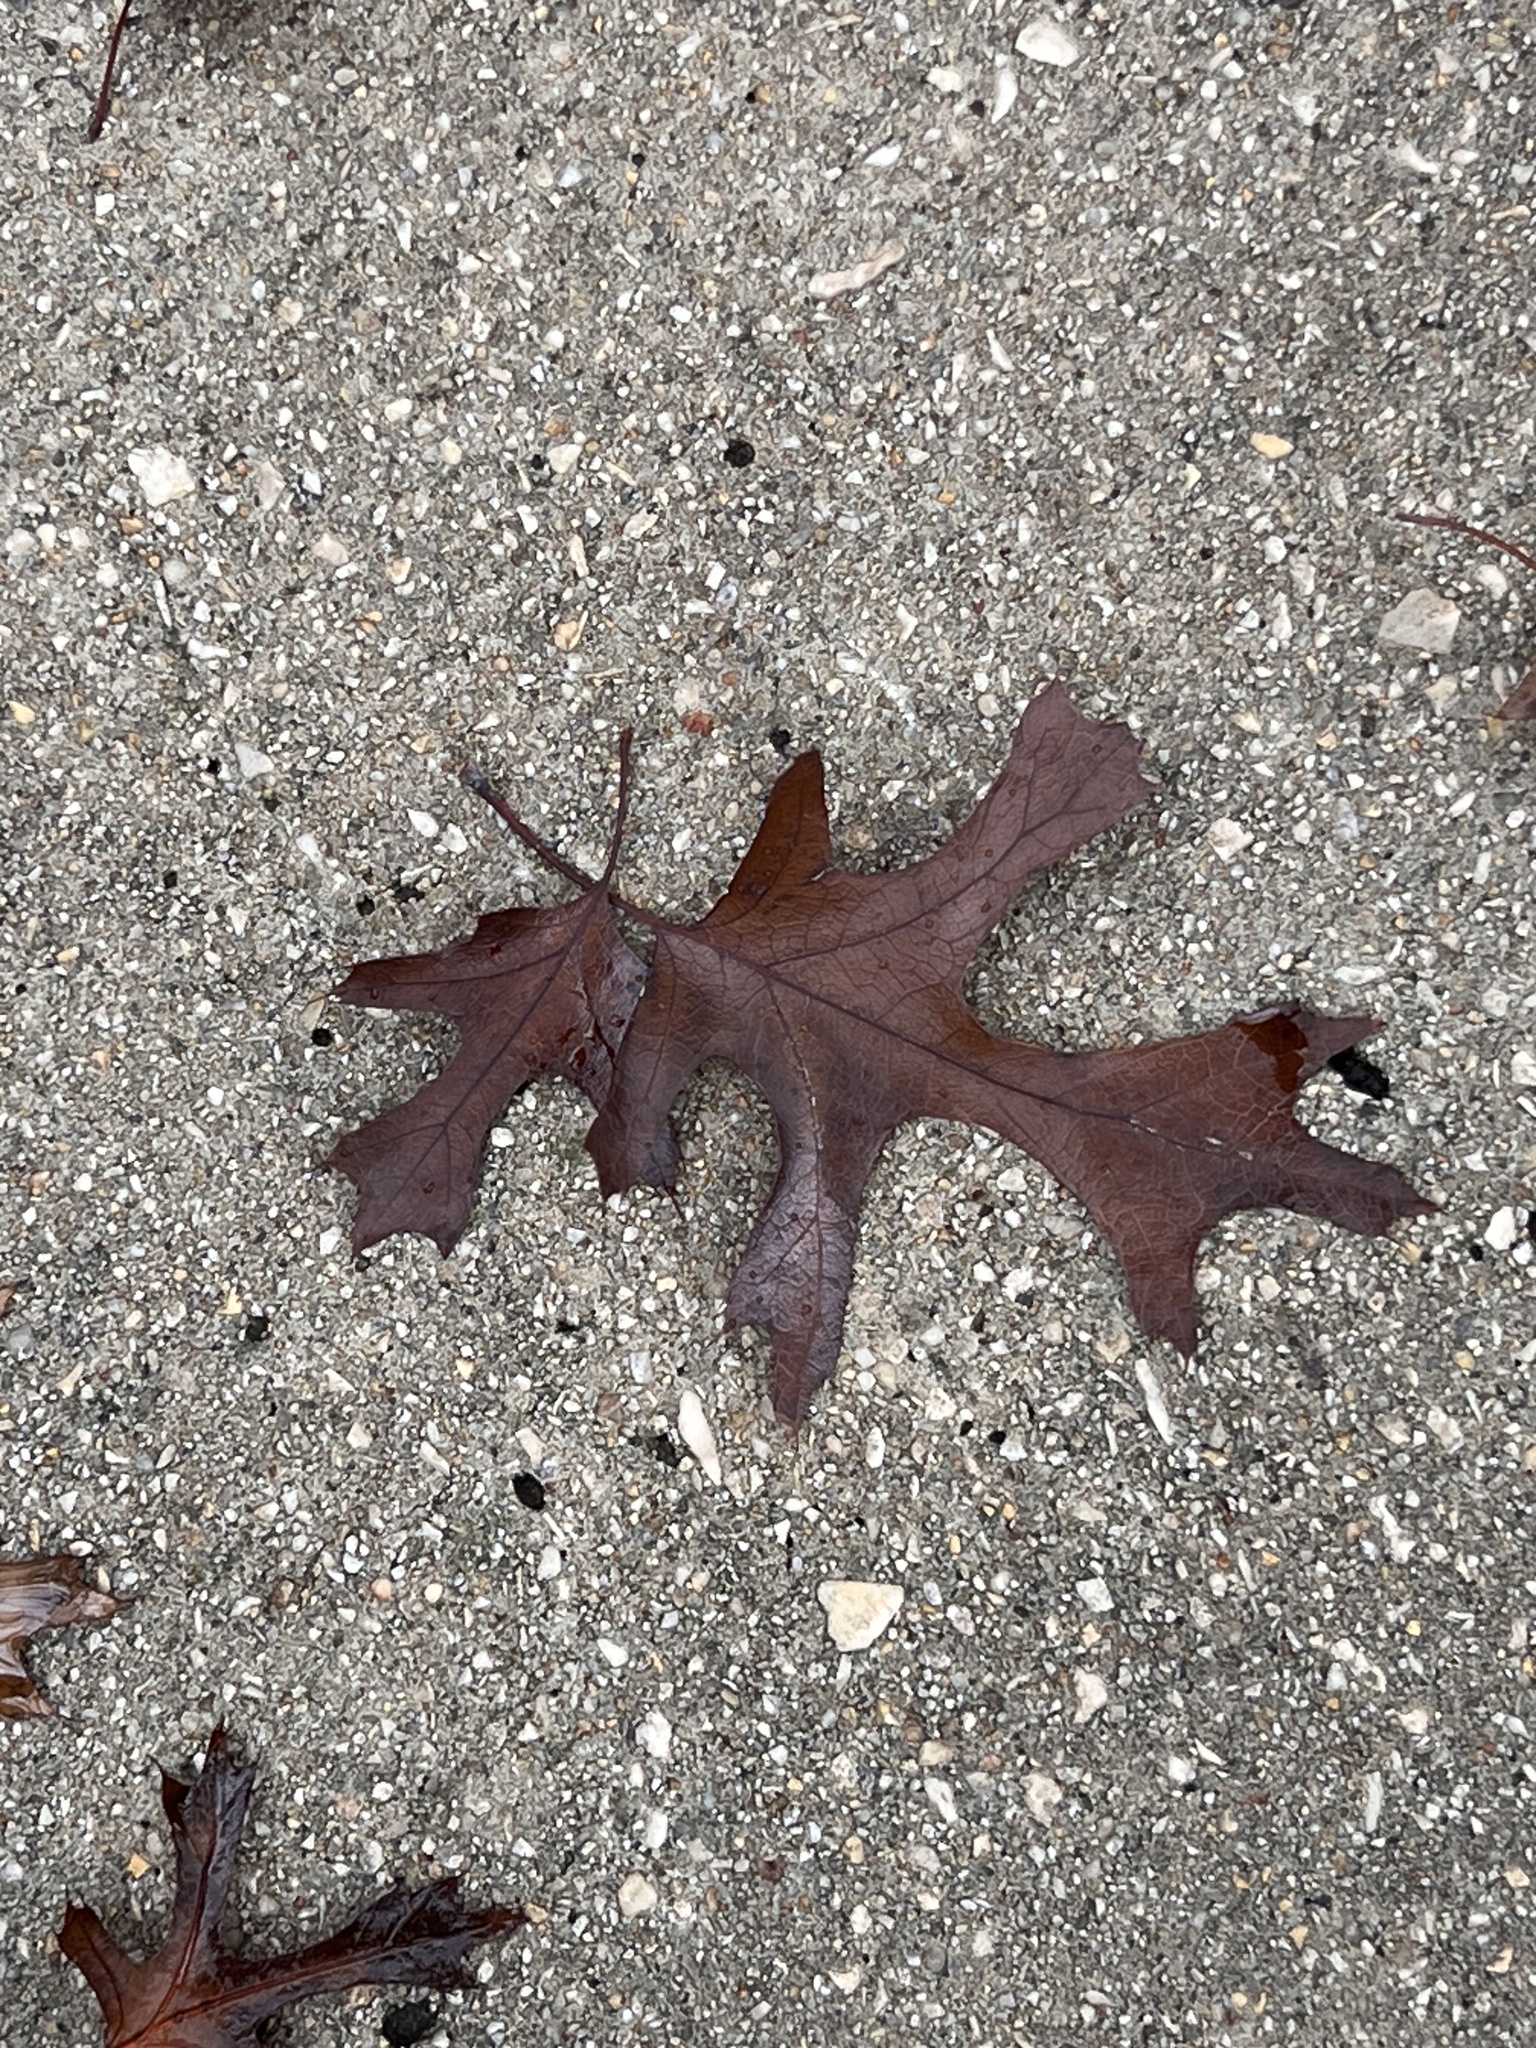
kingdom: Plantae
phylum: Tracheophyta
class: Magnoliopsida
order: Fagales
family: Fagaceae
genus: Quercus
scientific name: Quercus buckleyi
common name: Buckley oak
